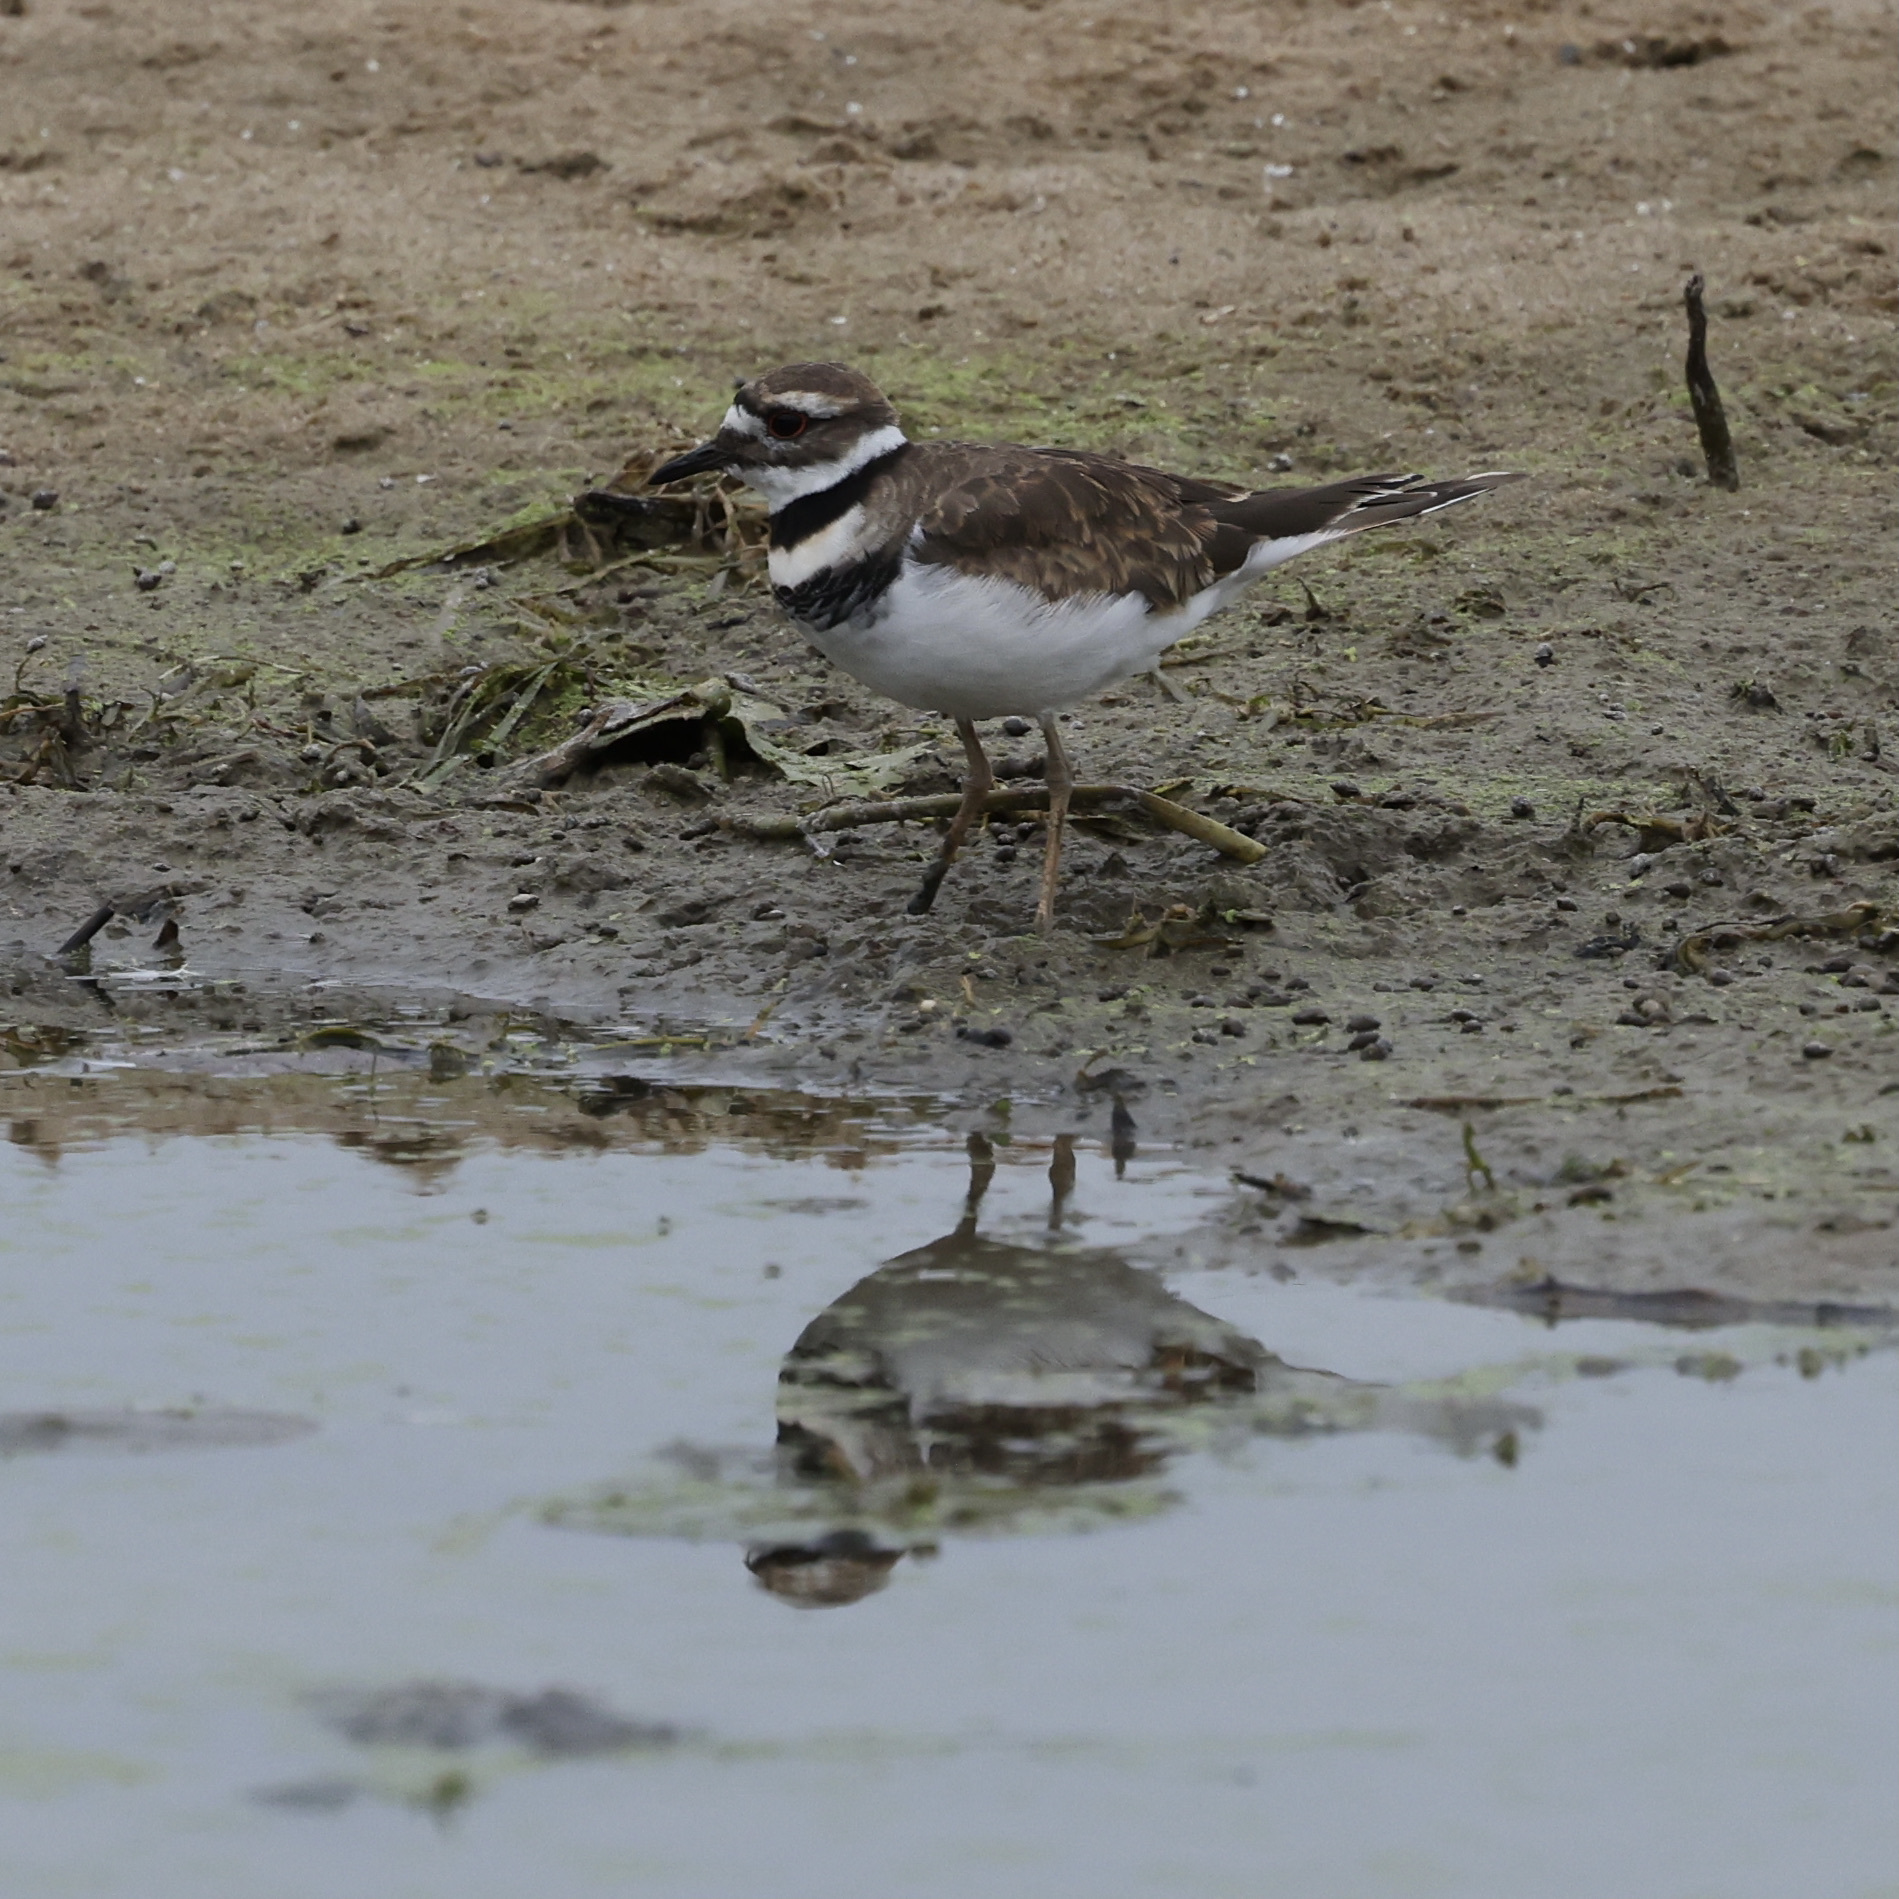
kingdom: Animalia
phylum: Chordata
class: Aves
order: Charadriiformes
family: Charadriidae
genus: Charadrius
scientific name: Charadrius vociferus
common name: Killdeer
